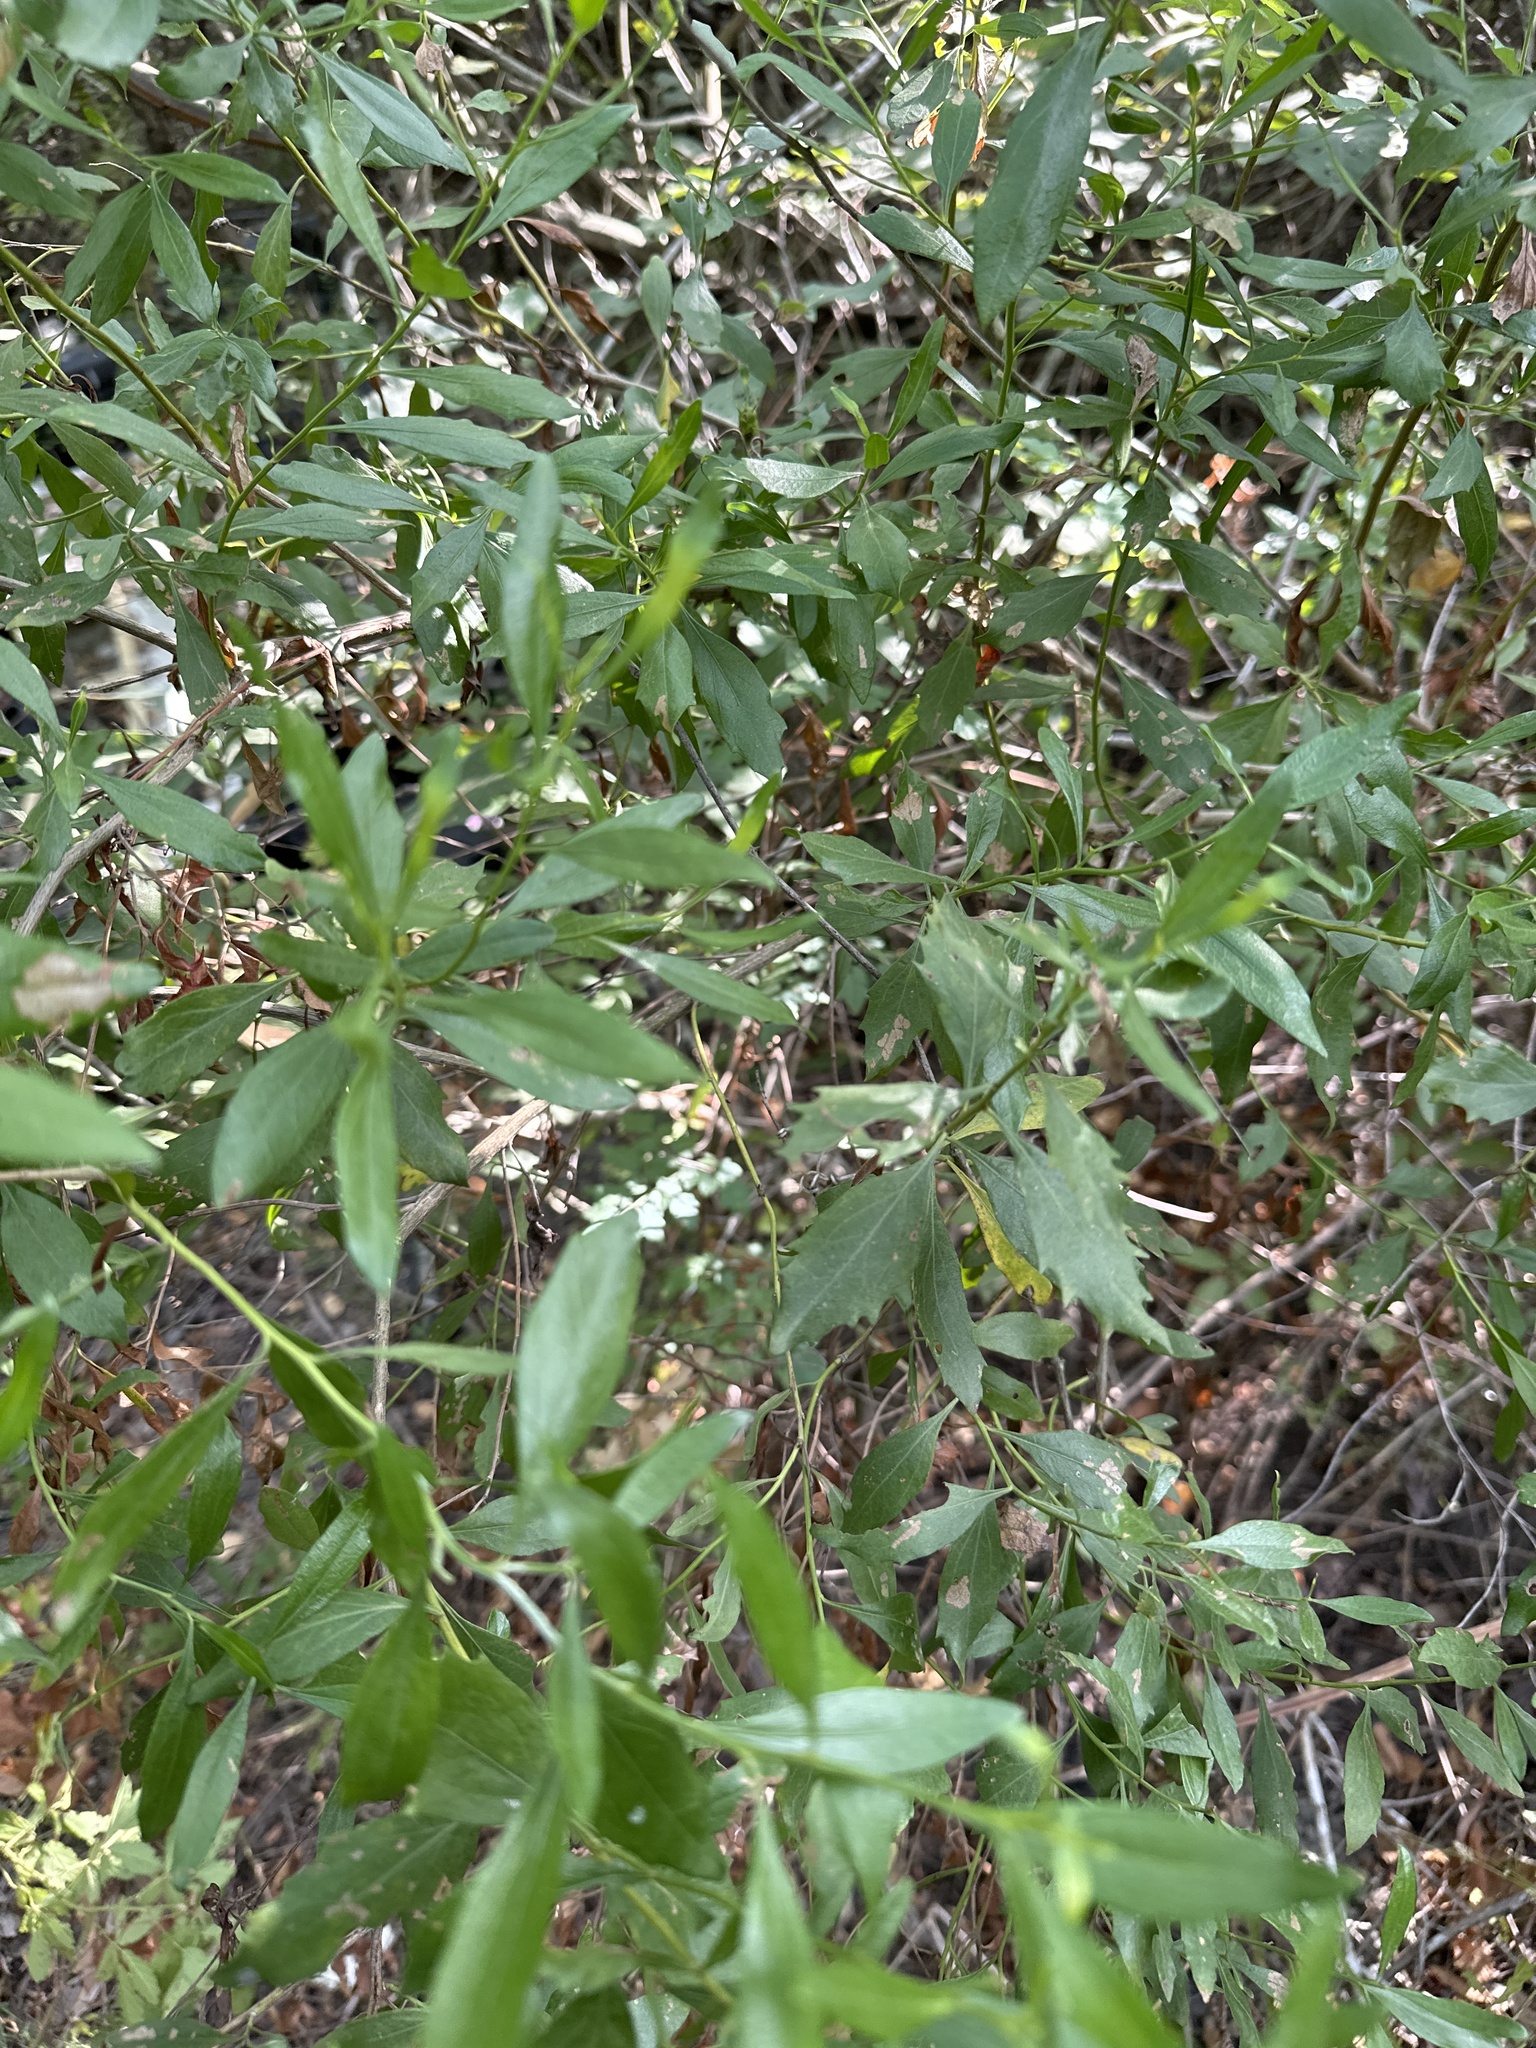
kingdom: Plantae
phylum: Tracheophyta
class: Magnoliopsida
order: Asterales
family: Asteraceae
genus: Baccharis
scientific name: Baccharis halimifolia
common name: Eastern baccharis
